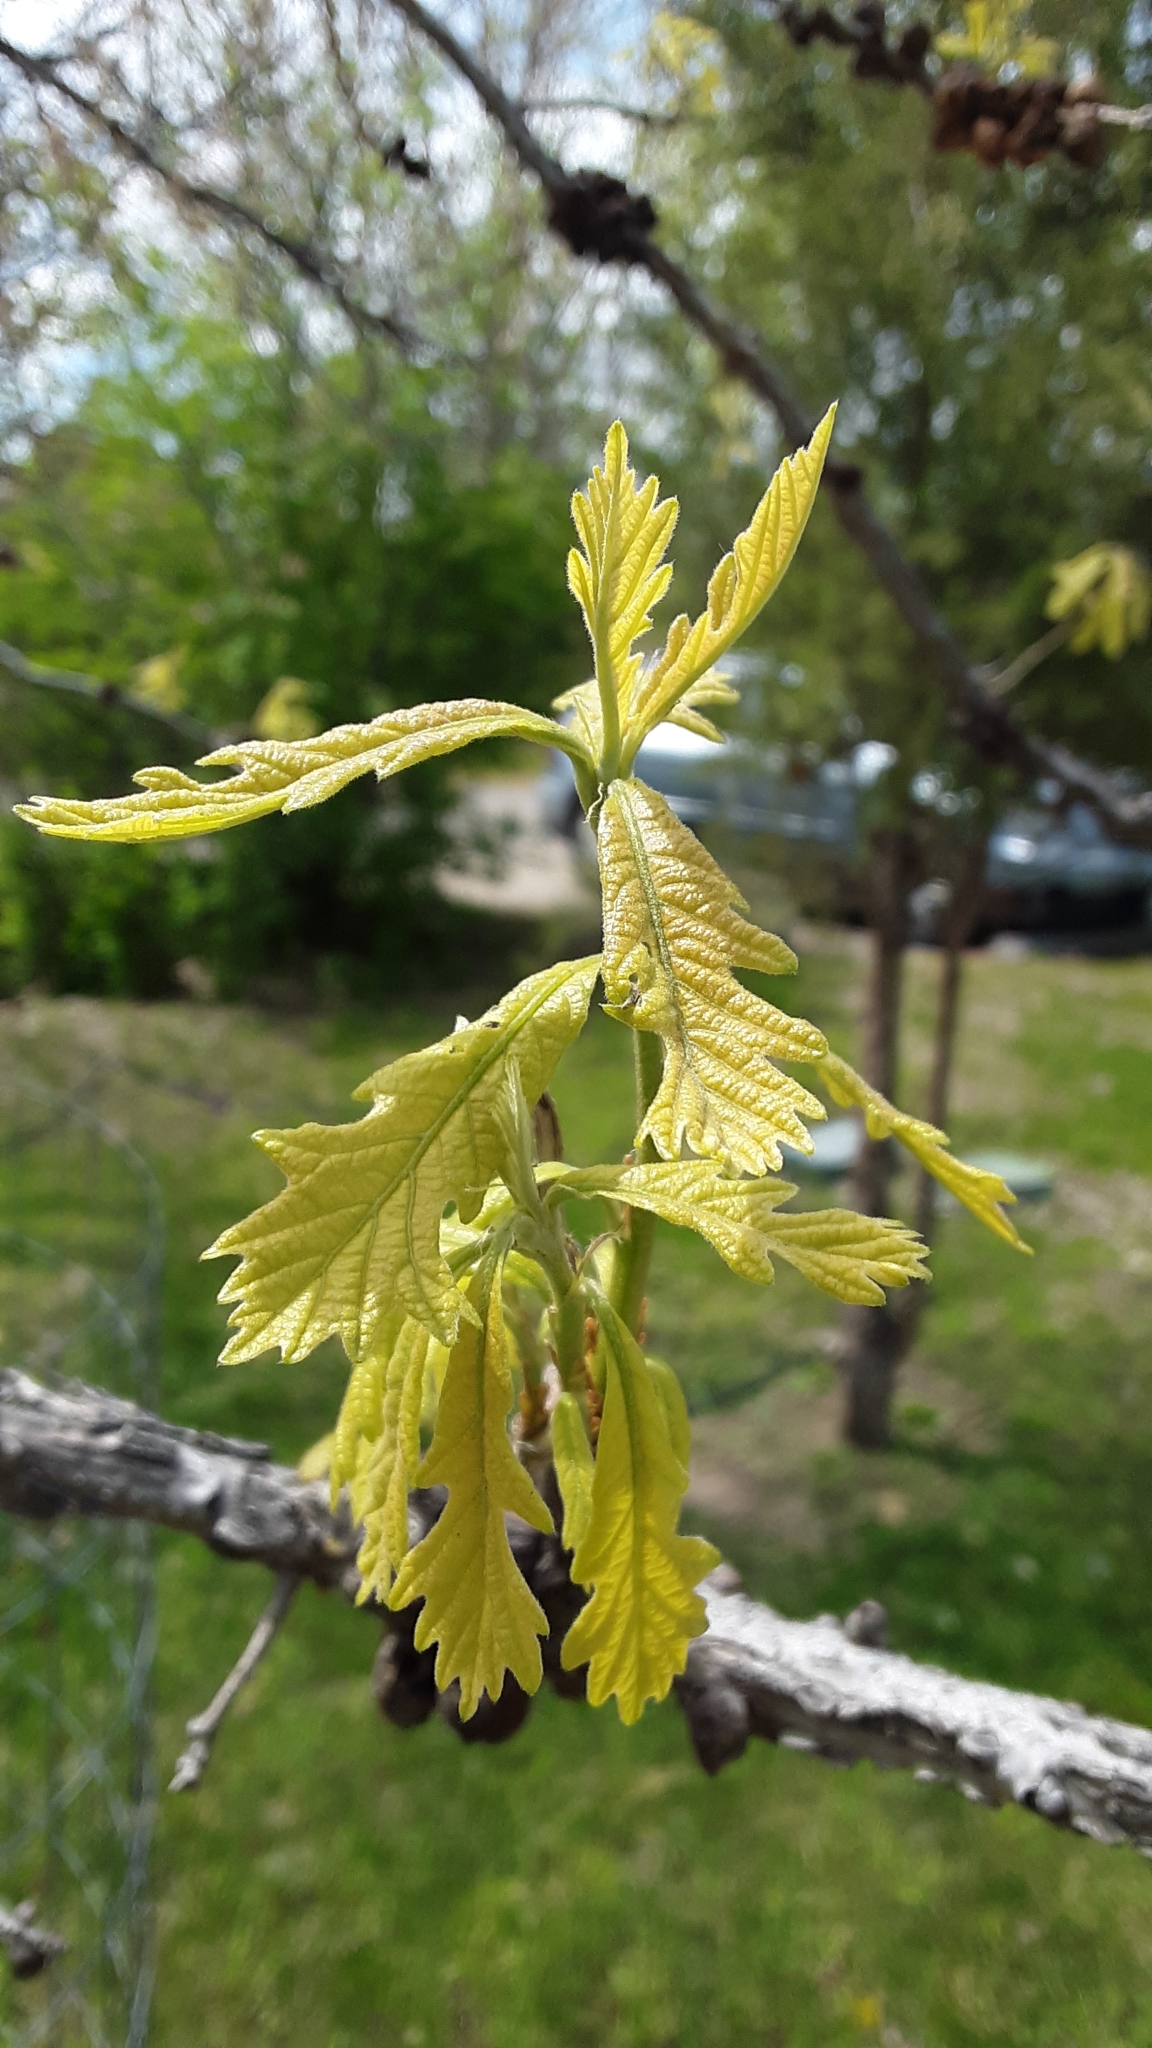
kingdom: Animalia
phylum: Arthropoda
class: Insecta
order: Hymenoptera
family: Cynipidae
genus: Disholcaspis
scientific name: Disholcaspis
